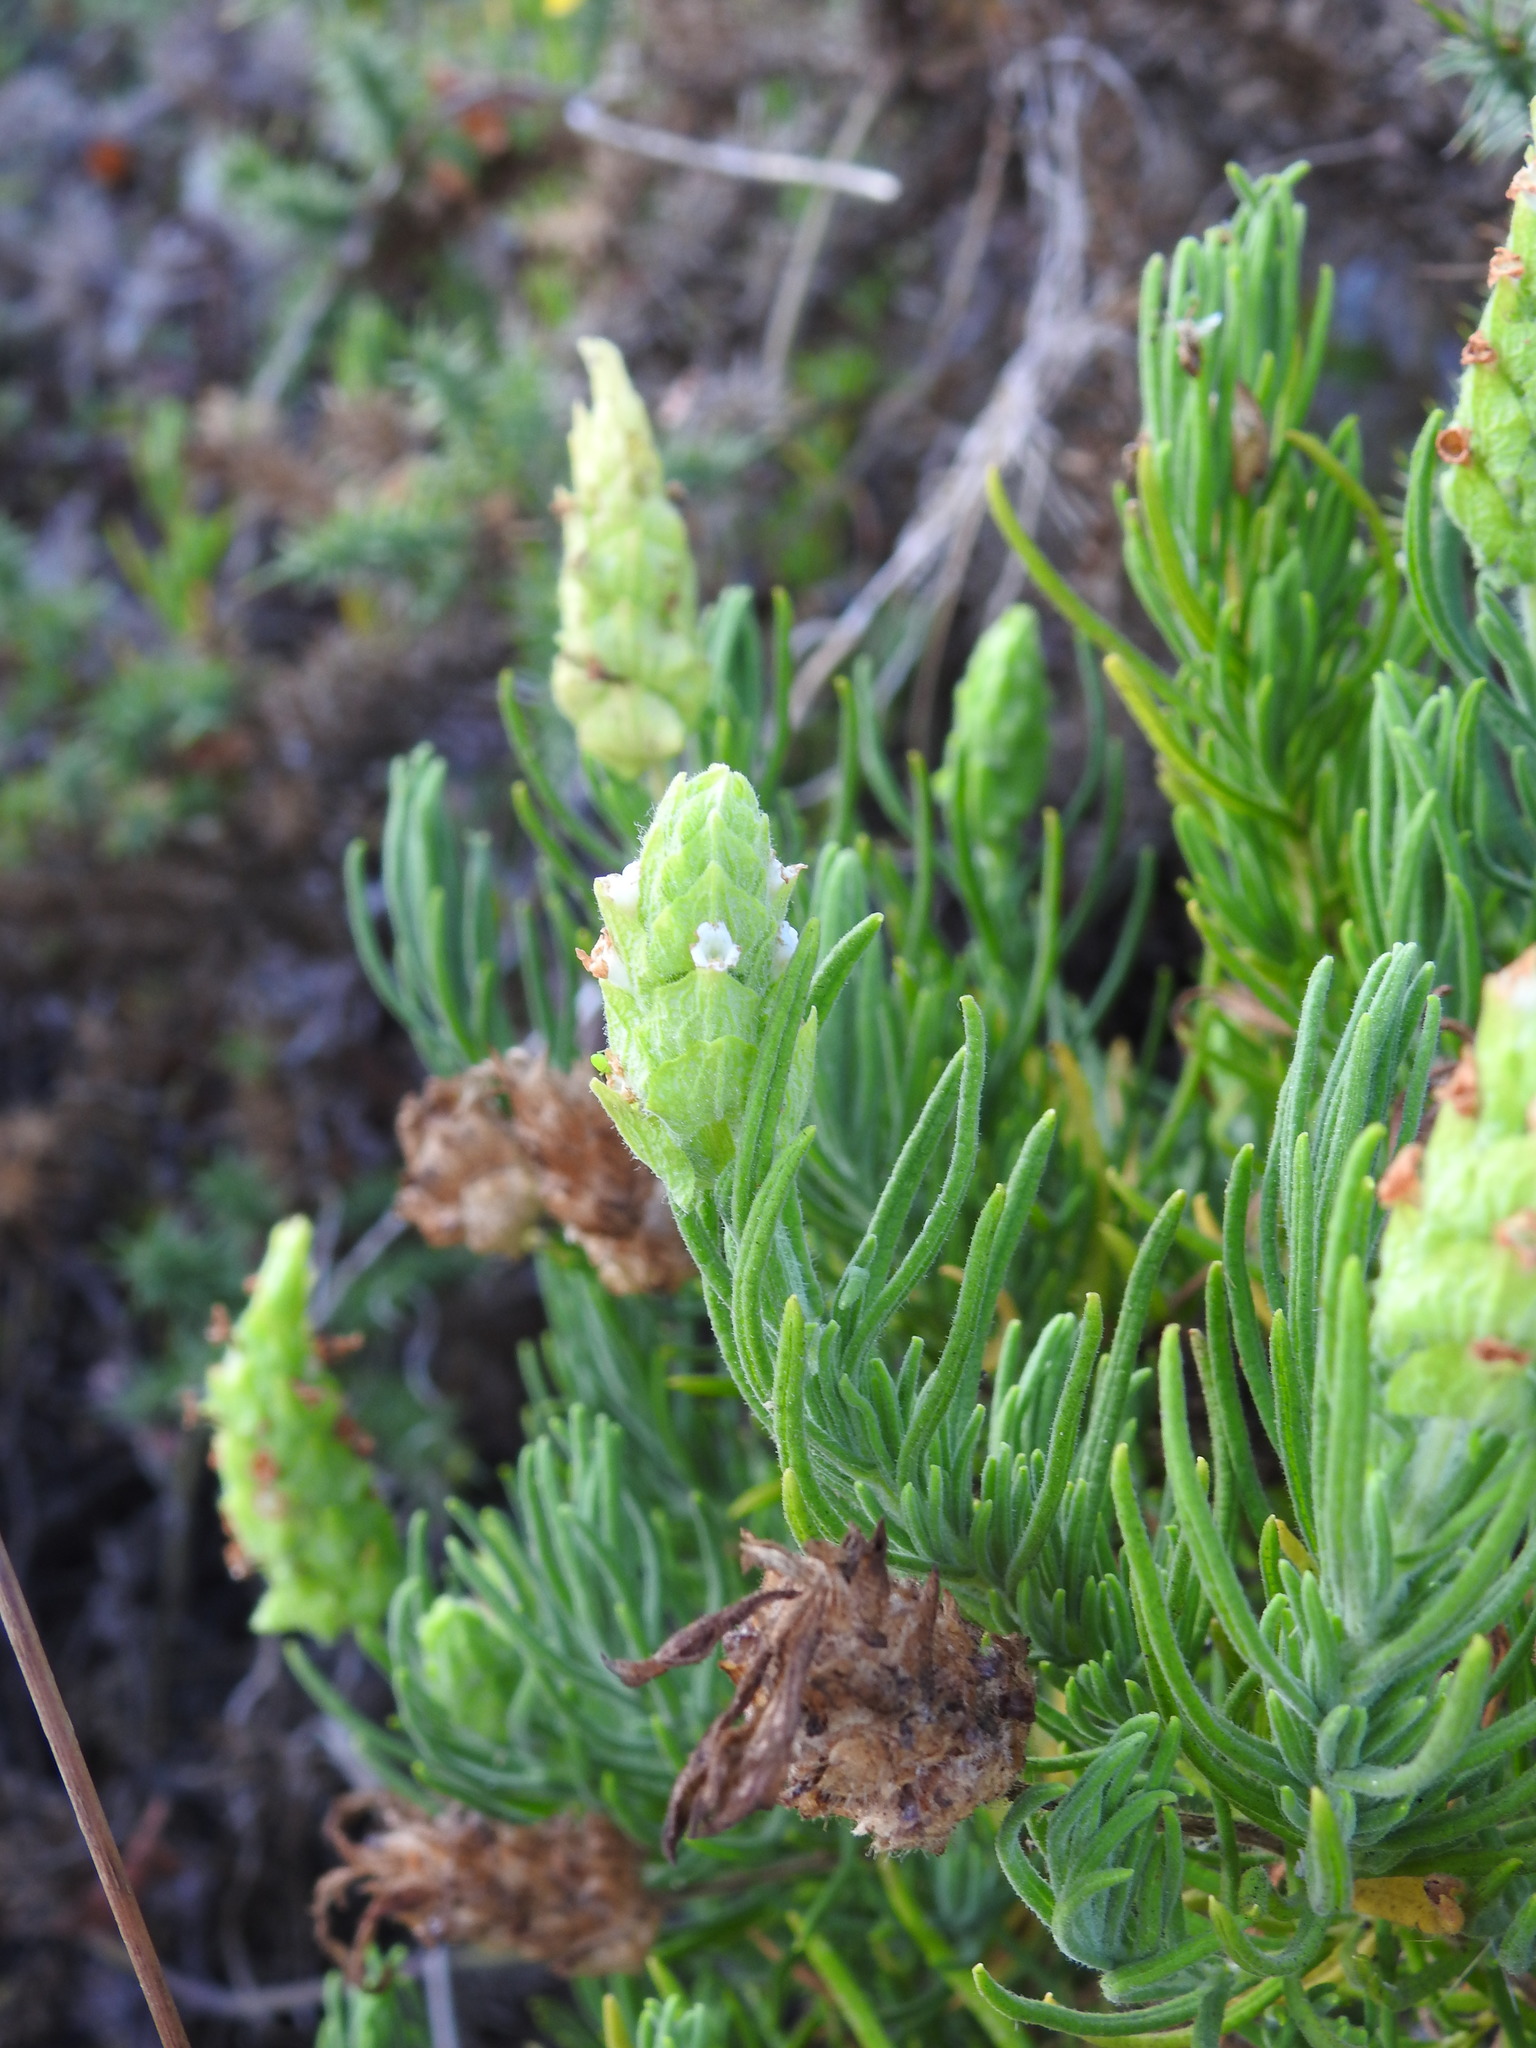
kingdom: Plantae
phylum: Tracheophyta
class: Magnoliopsida
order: Lamiales
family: Lamiaceae
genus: Lavandula
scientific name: Lavandula viridis
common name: Green spanish lavender
